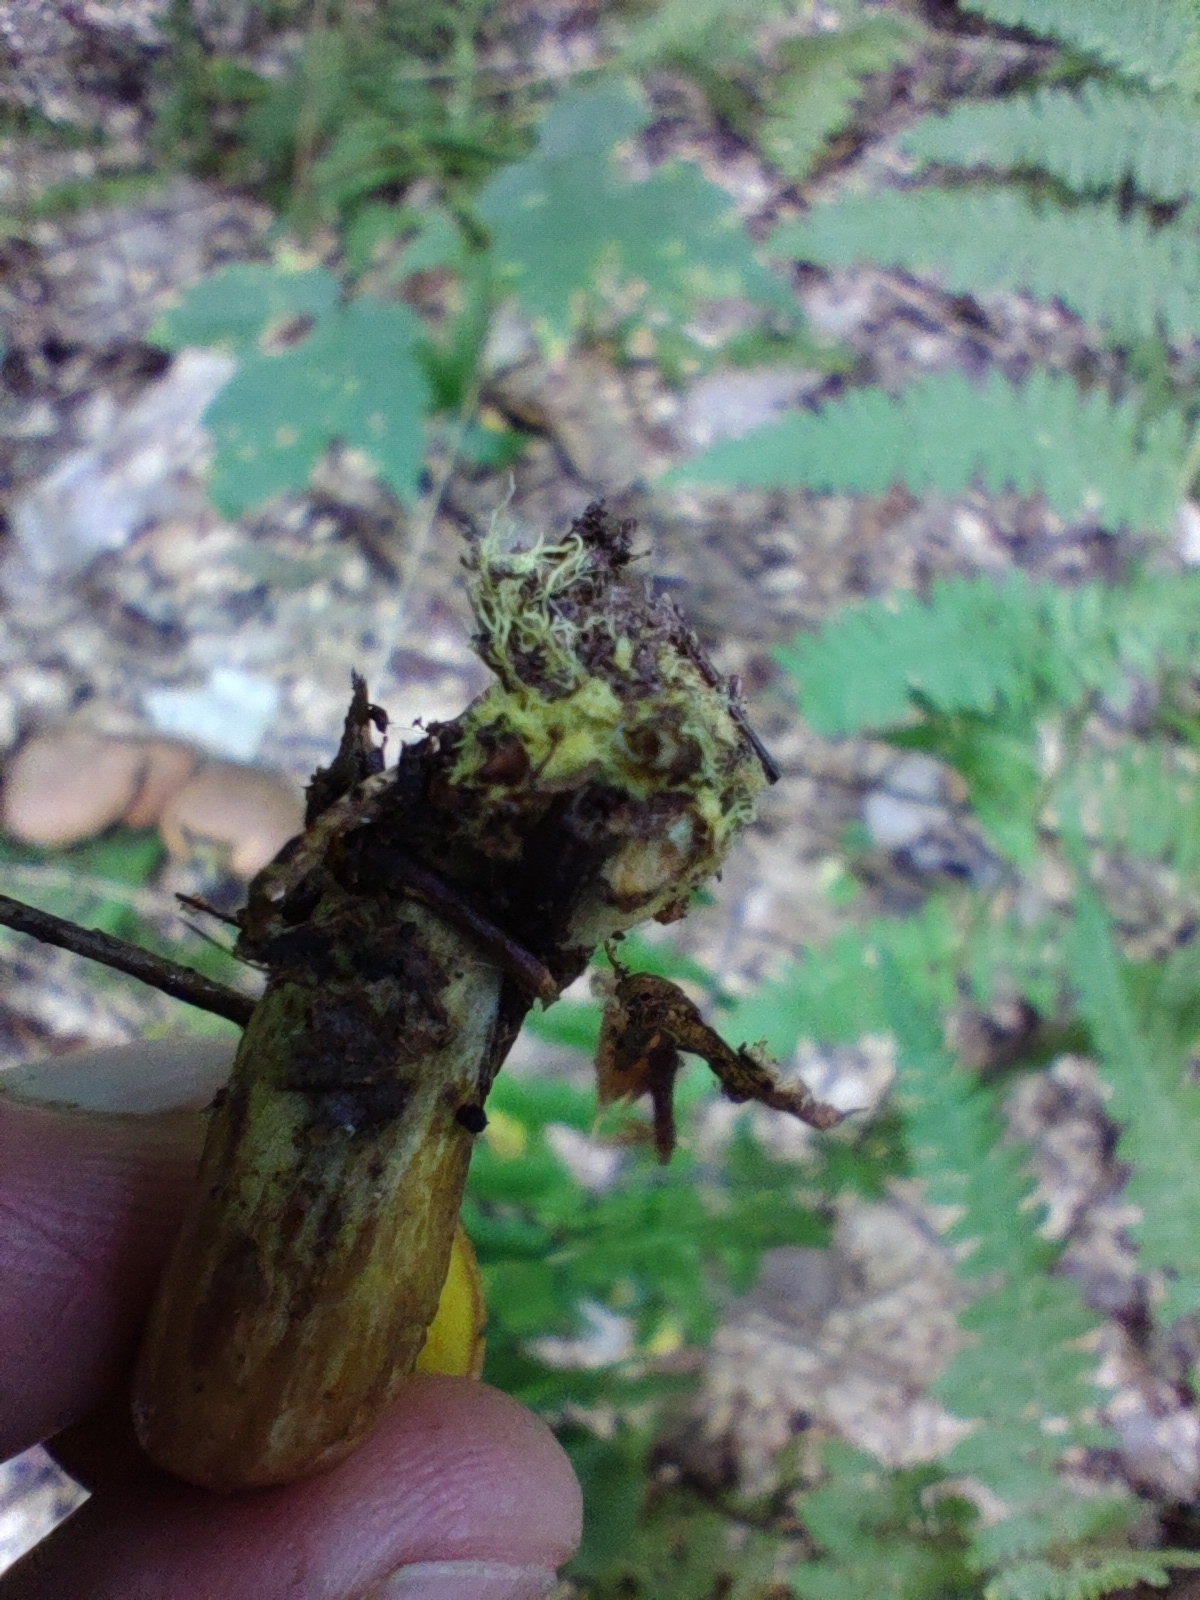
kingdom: Fungi
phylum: Basidiomycota
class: Agaricomycetes
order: Boletales
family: Boletaceae
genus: Aureoboletus
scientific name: Aureoboletus innixus
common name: Clustered brown bolete
